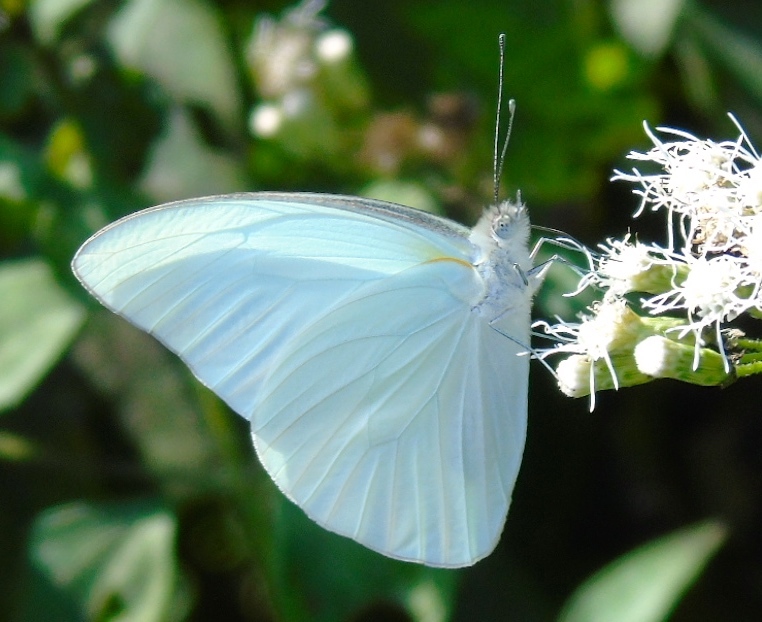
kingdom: Animalia
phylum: Arthropoda
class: Insecta
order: Lepidoptera
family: Pieridae
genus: Glutophrissa
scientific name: Glutophrissa drusilla
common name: Florida white
